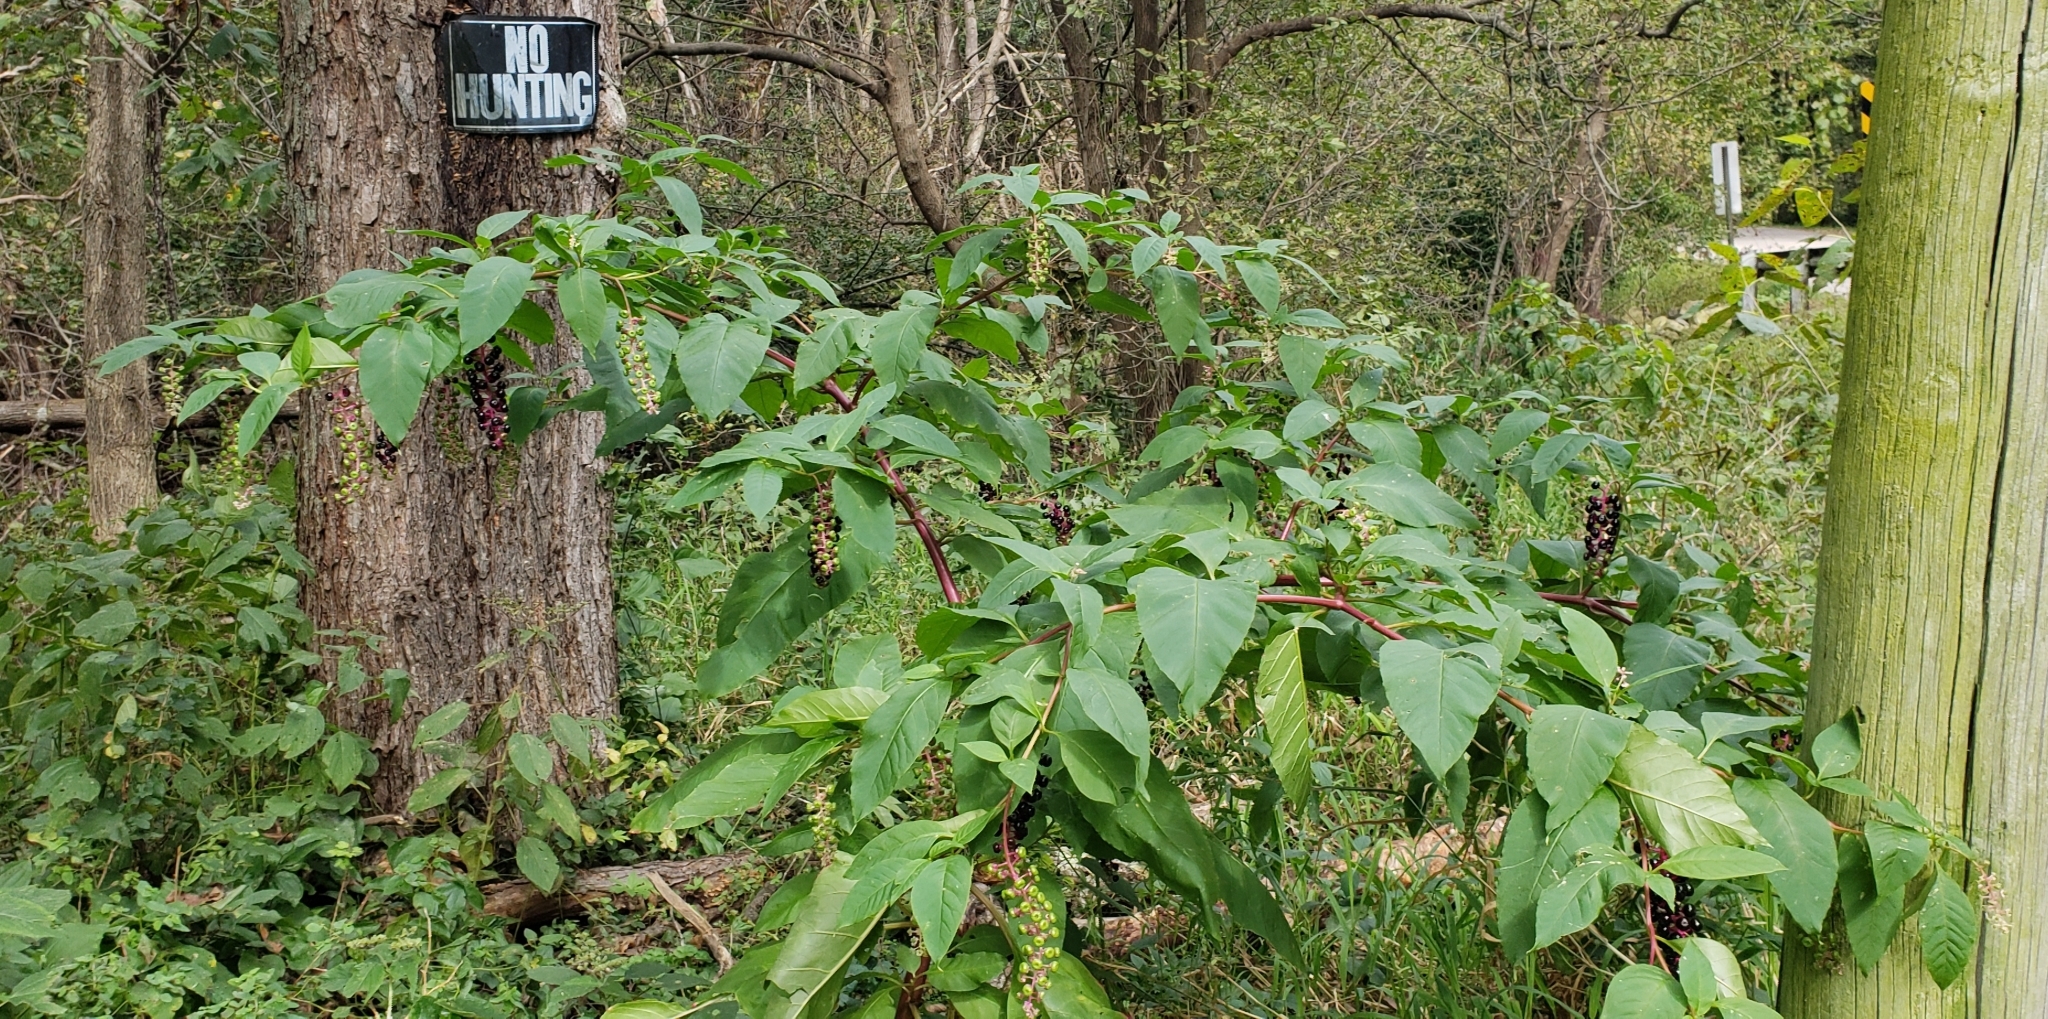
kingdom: Plantae
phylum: Tracheophyta
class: Magnoliopsida
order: Caryophyllales
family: Phytolaccaceae
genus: Phytolacca
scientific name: Phytolacca americana
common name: American pokeweed
